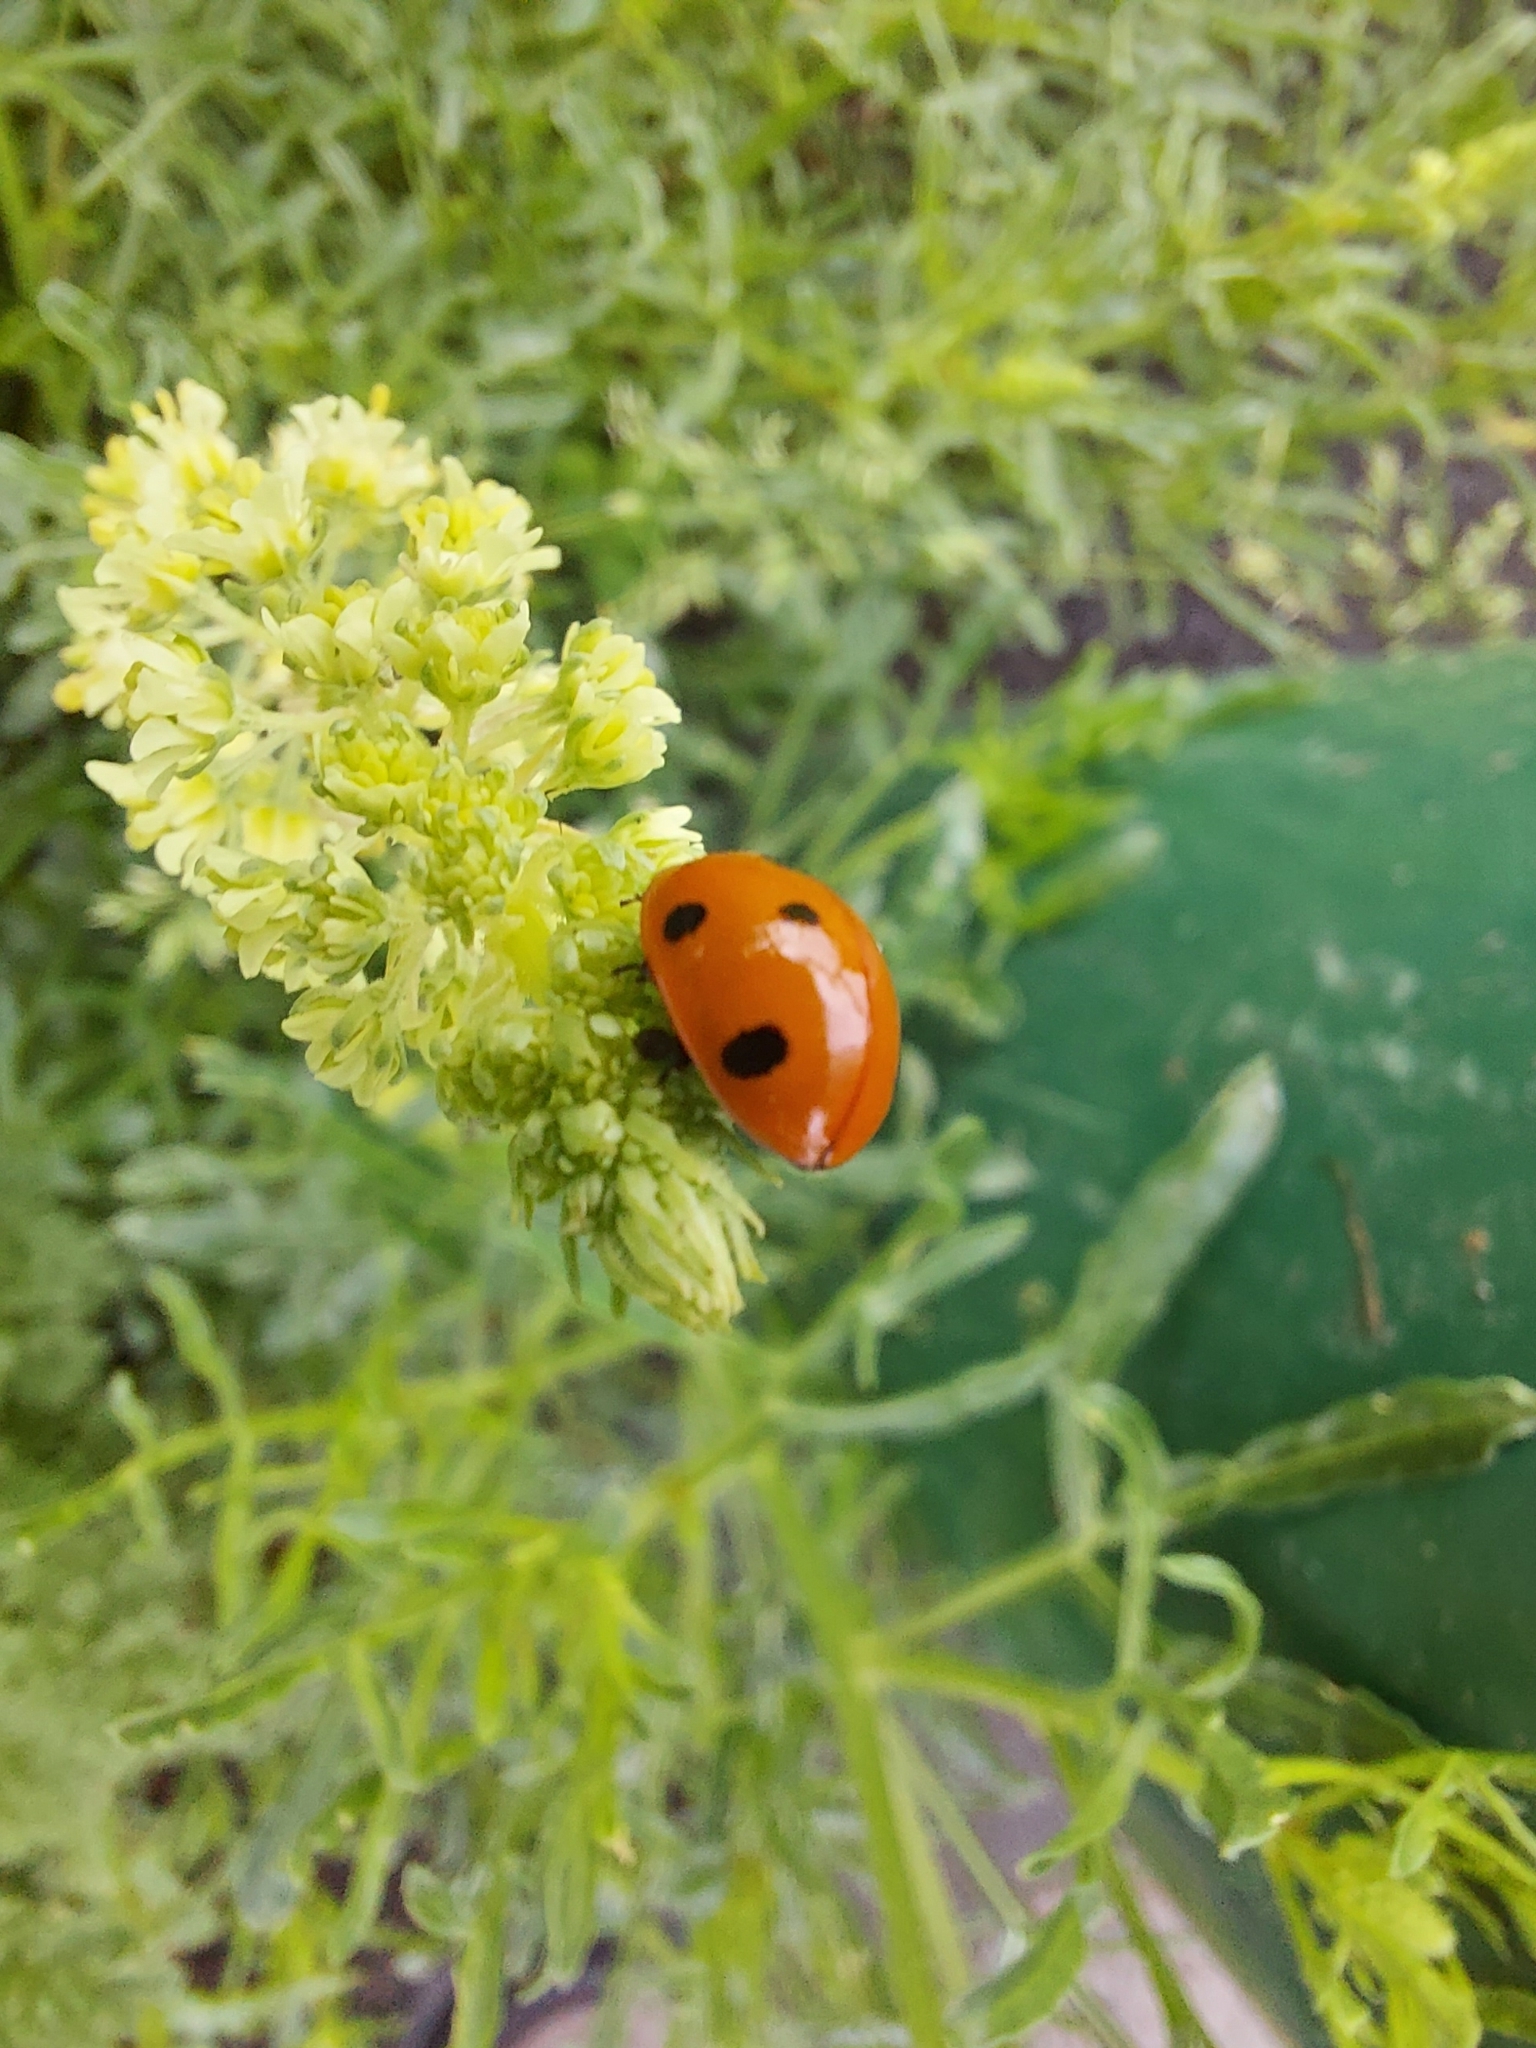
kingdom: Animalia
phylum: Arthropoda
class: Insecta
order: Coleoptera
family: Coccinellidae
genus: Coccinella
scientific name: Coccinella septempunctata
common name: Sevenspotted lady beetle
